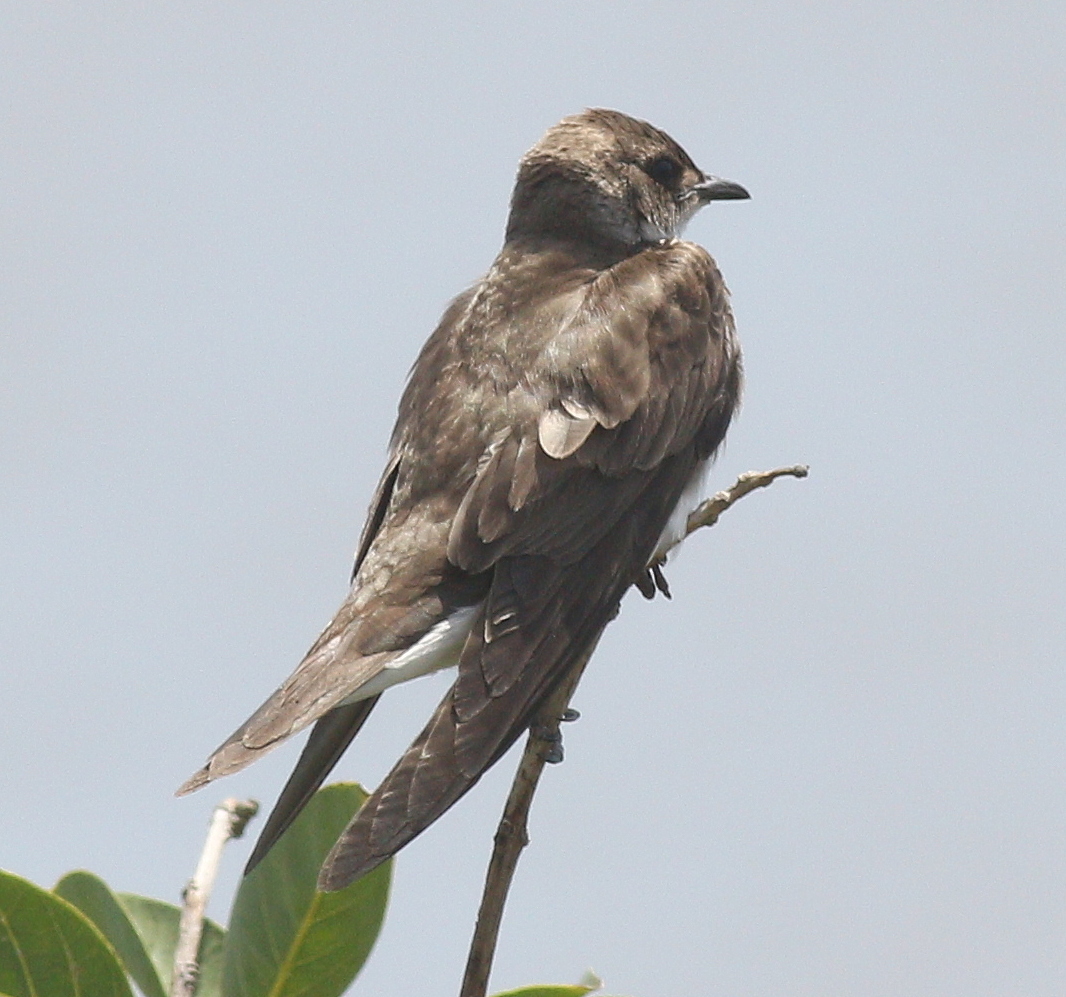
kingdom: Animalia
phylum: Chordata
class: Aves
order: Passeriformes
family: Hirundinidae
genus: Progne
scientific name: Progne tapera
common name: Brown-chested martin
